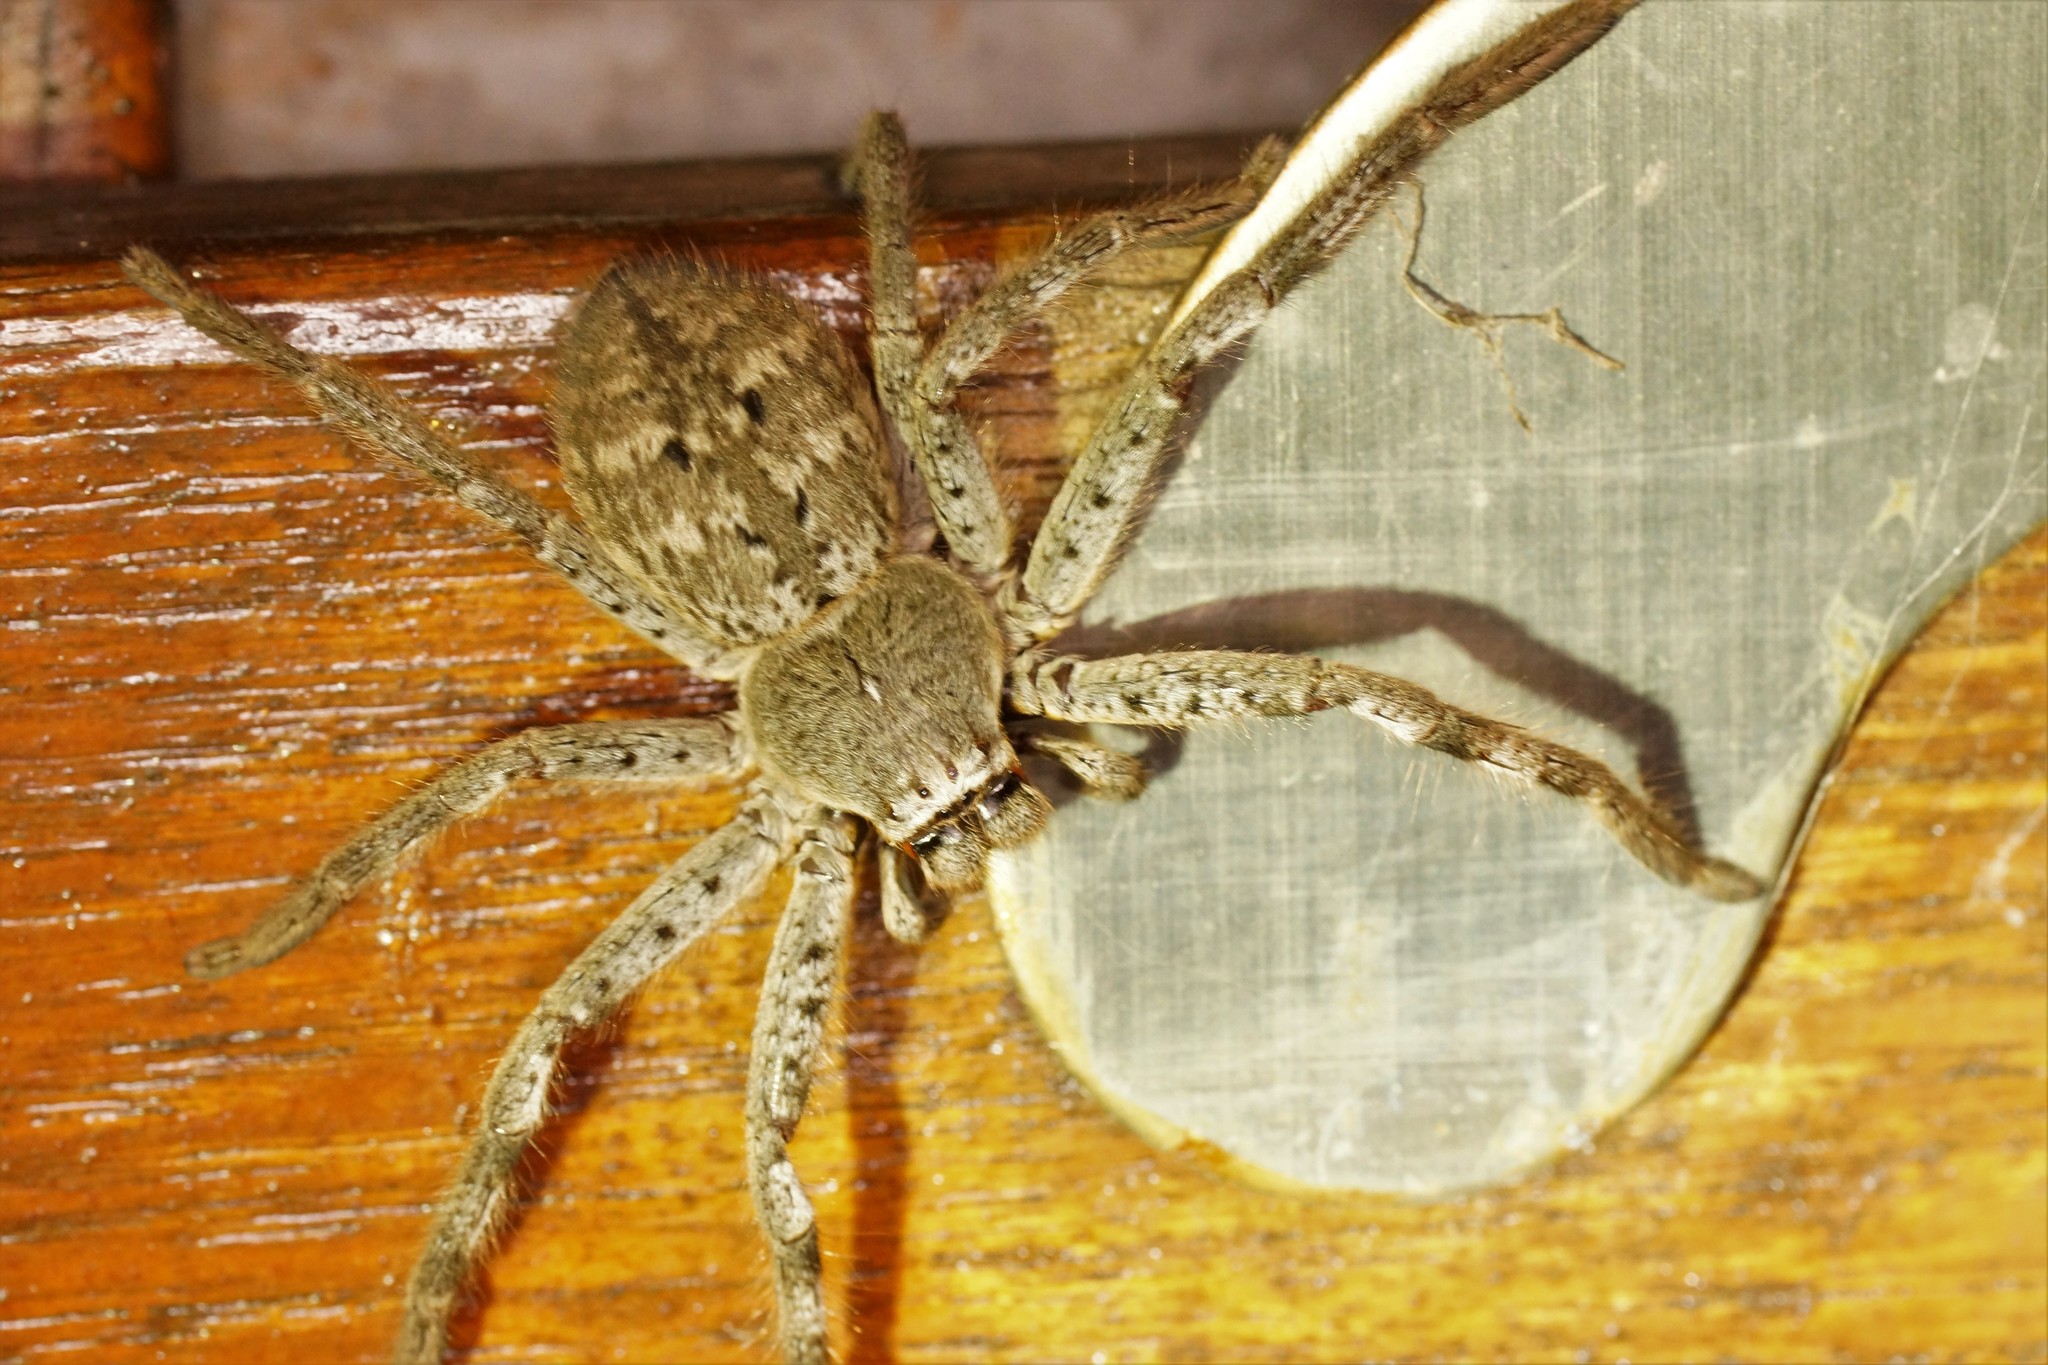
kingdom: Animalia
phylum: Arthropoda
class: Arachnida
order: Araneae
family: Sparassidae
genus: Isopedella
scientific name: Isopedella victorialis
